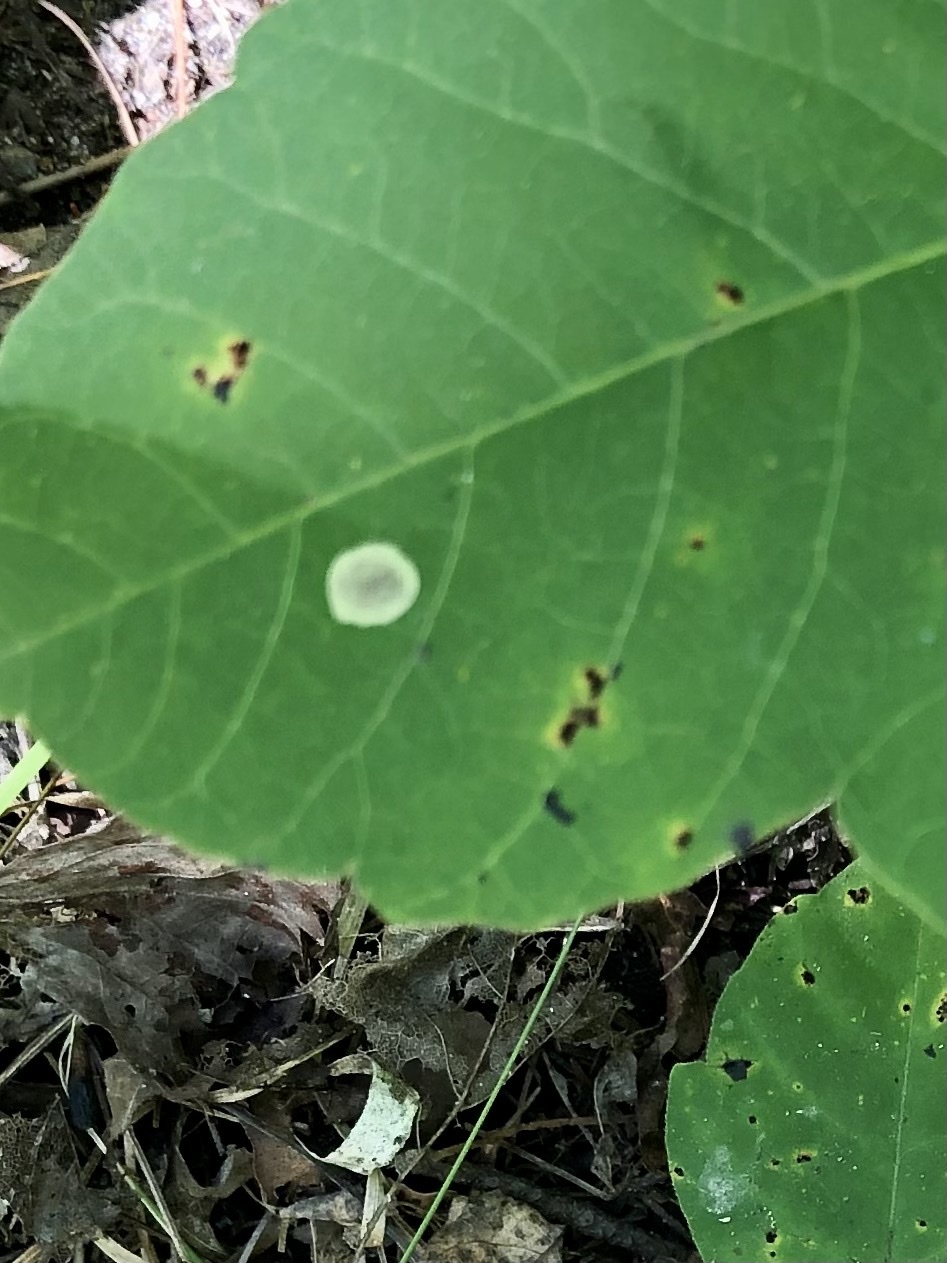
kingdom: Animalia
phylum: Arthropoda
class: Insecta
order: Lepidoptera
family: Gracillariidae
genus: Cameraria
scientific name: Cameraria guttifinitella
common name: Poison ivy leaf-miner moth
